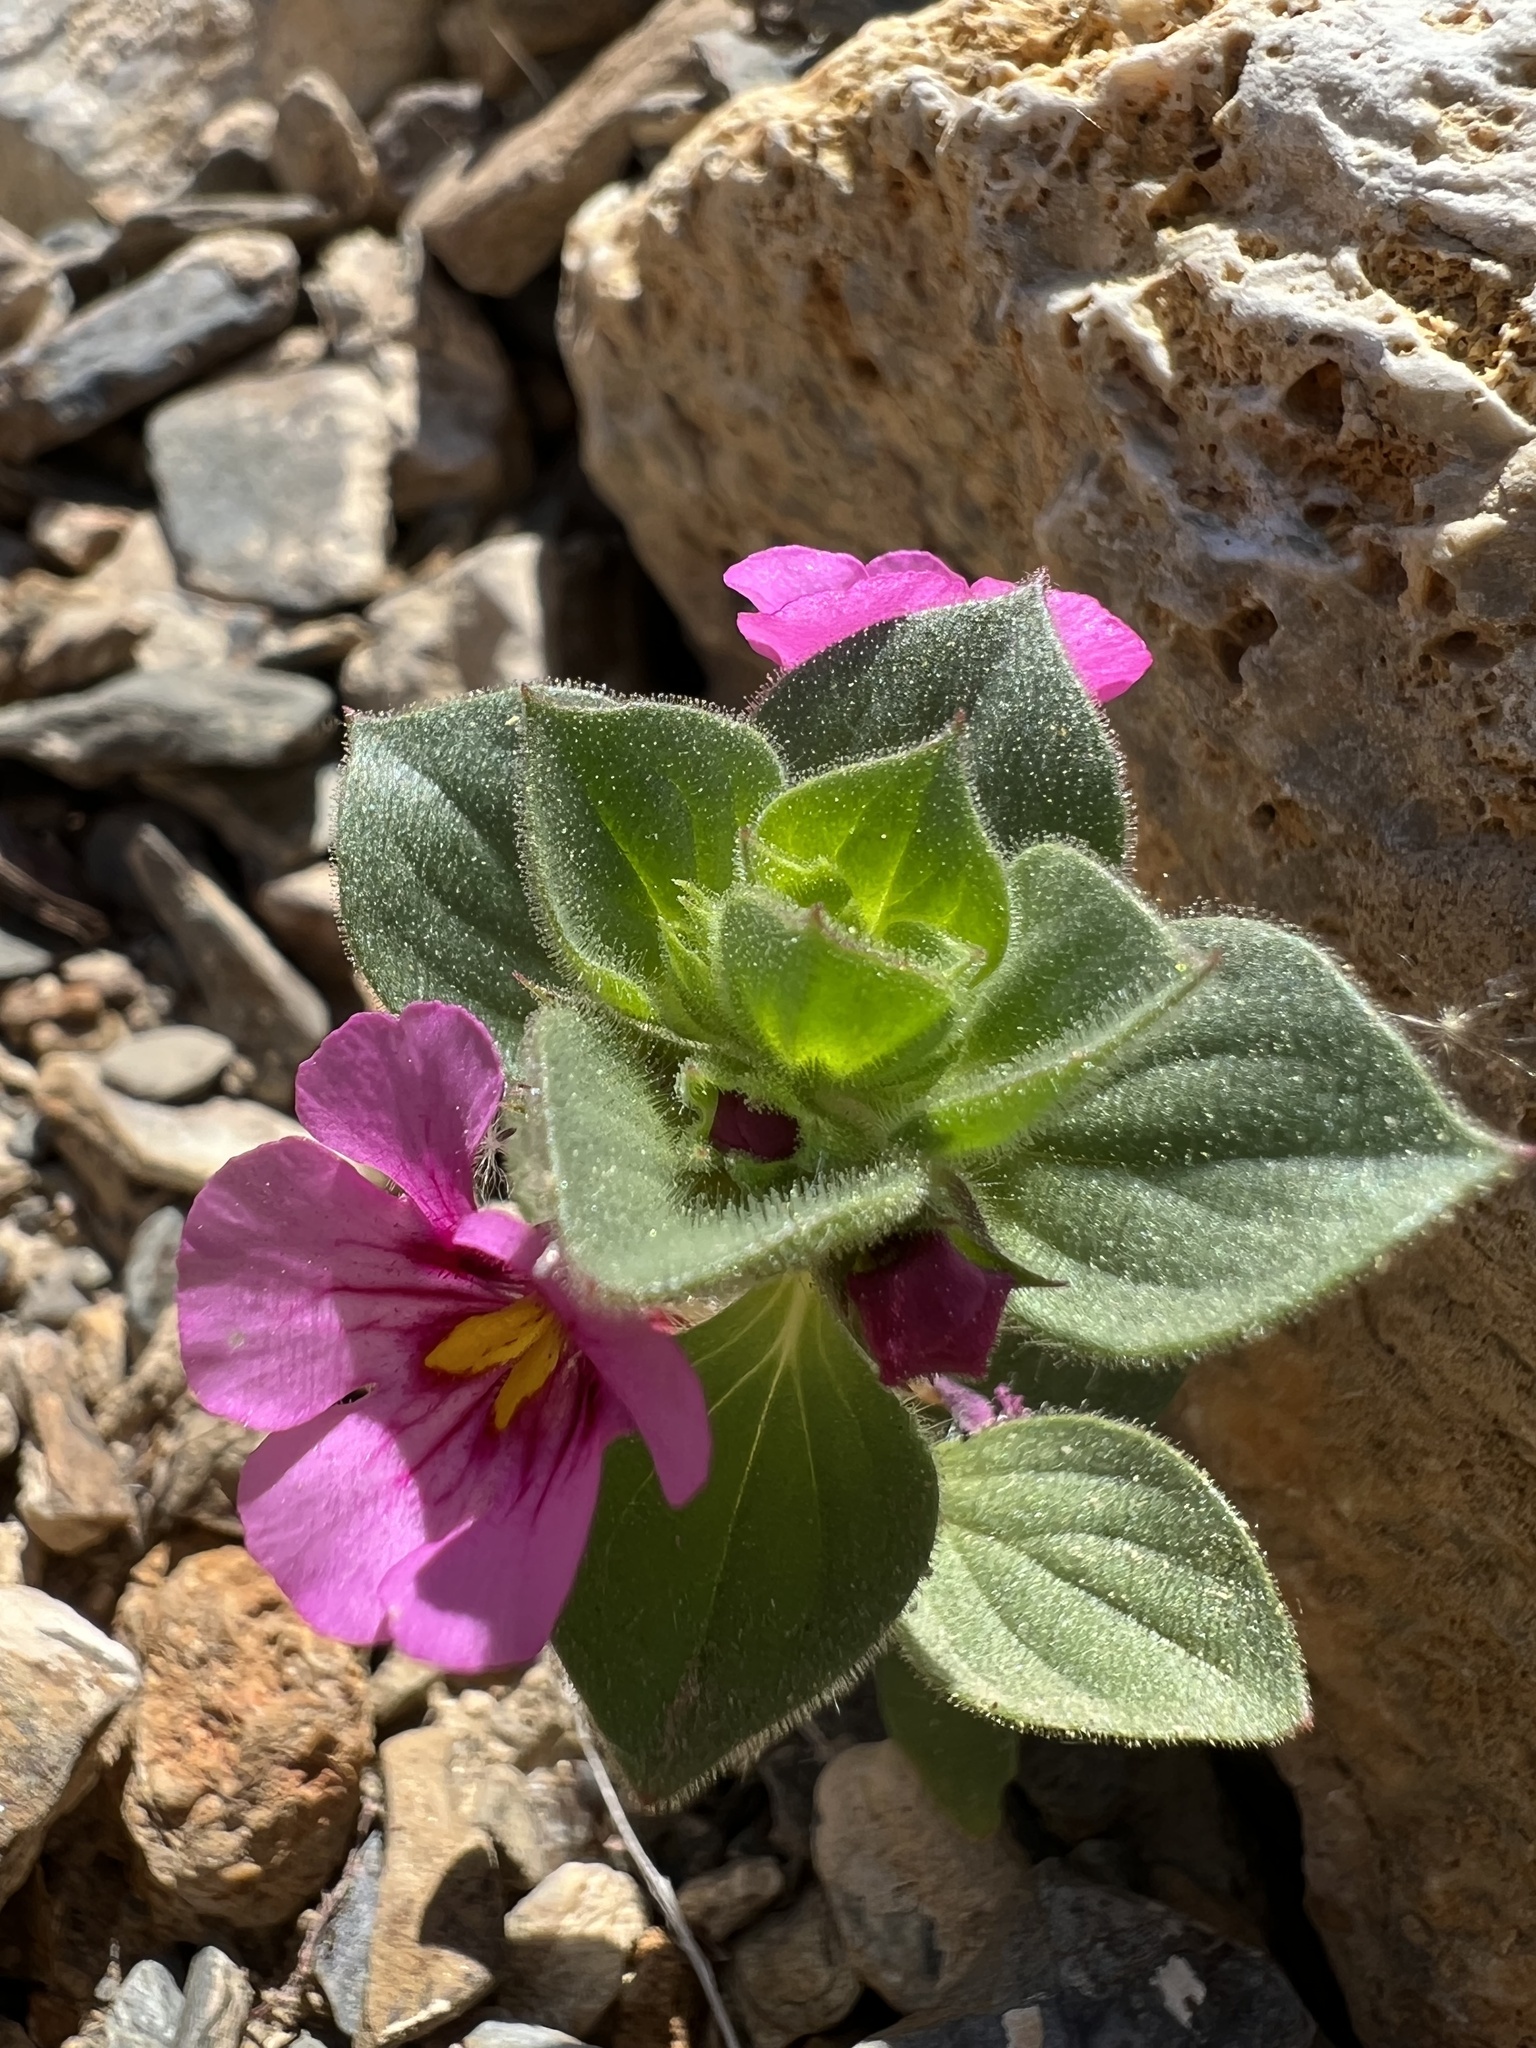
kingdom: Plantae
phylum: Tracheophyta
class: Magnoliopsida
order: Lamiales
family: Phrymaceae
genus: Diplacus
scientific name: Diplacus bigelovii
